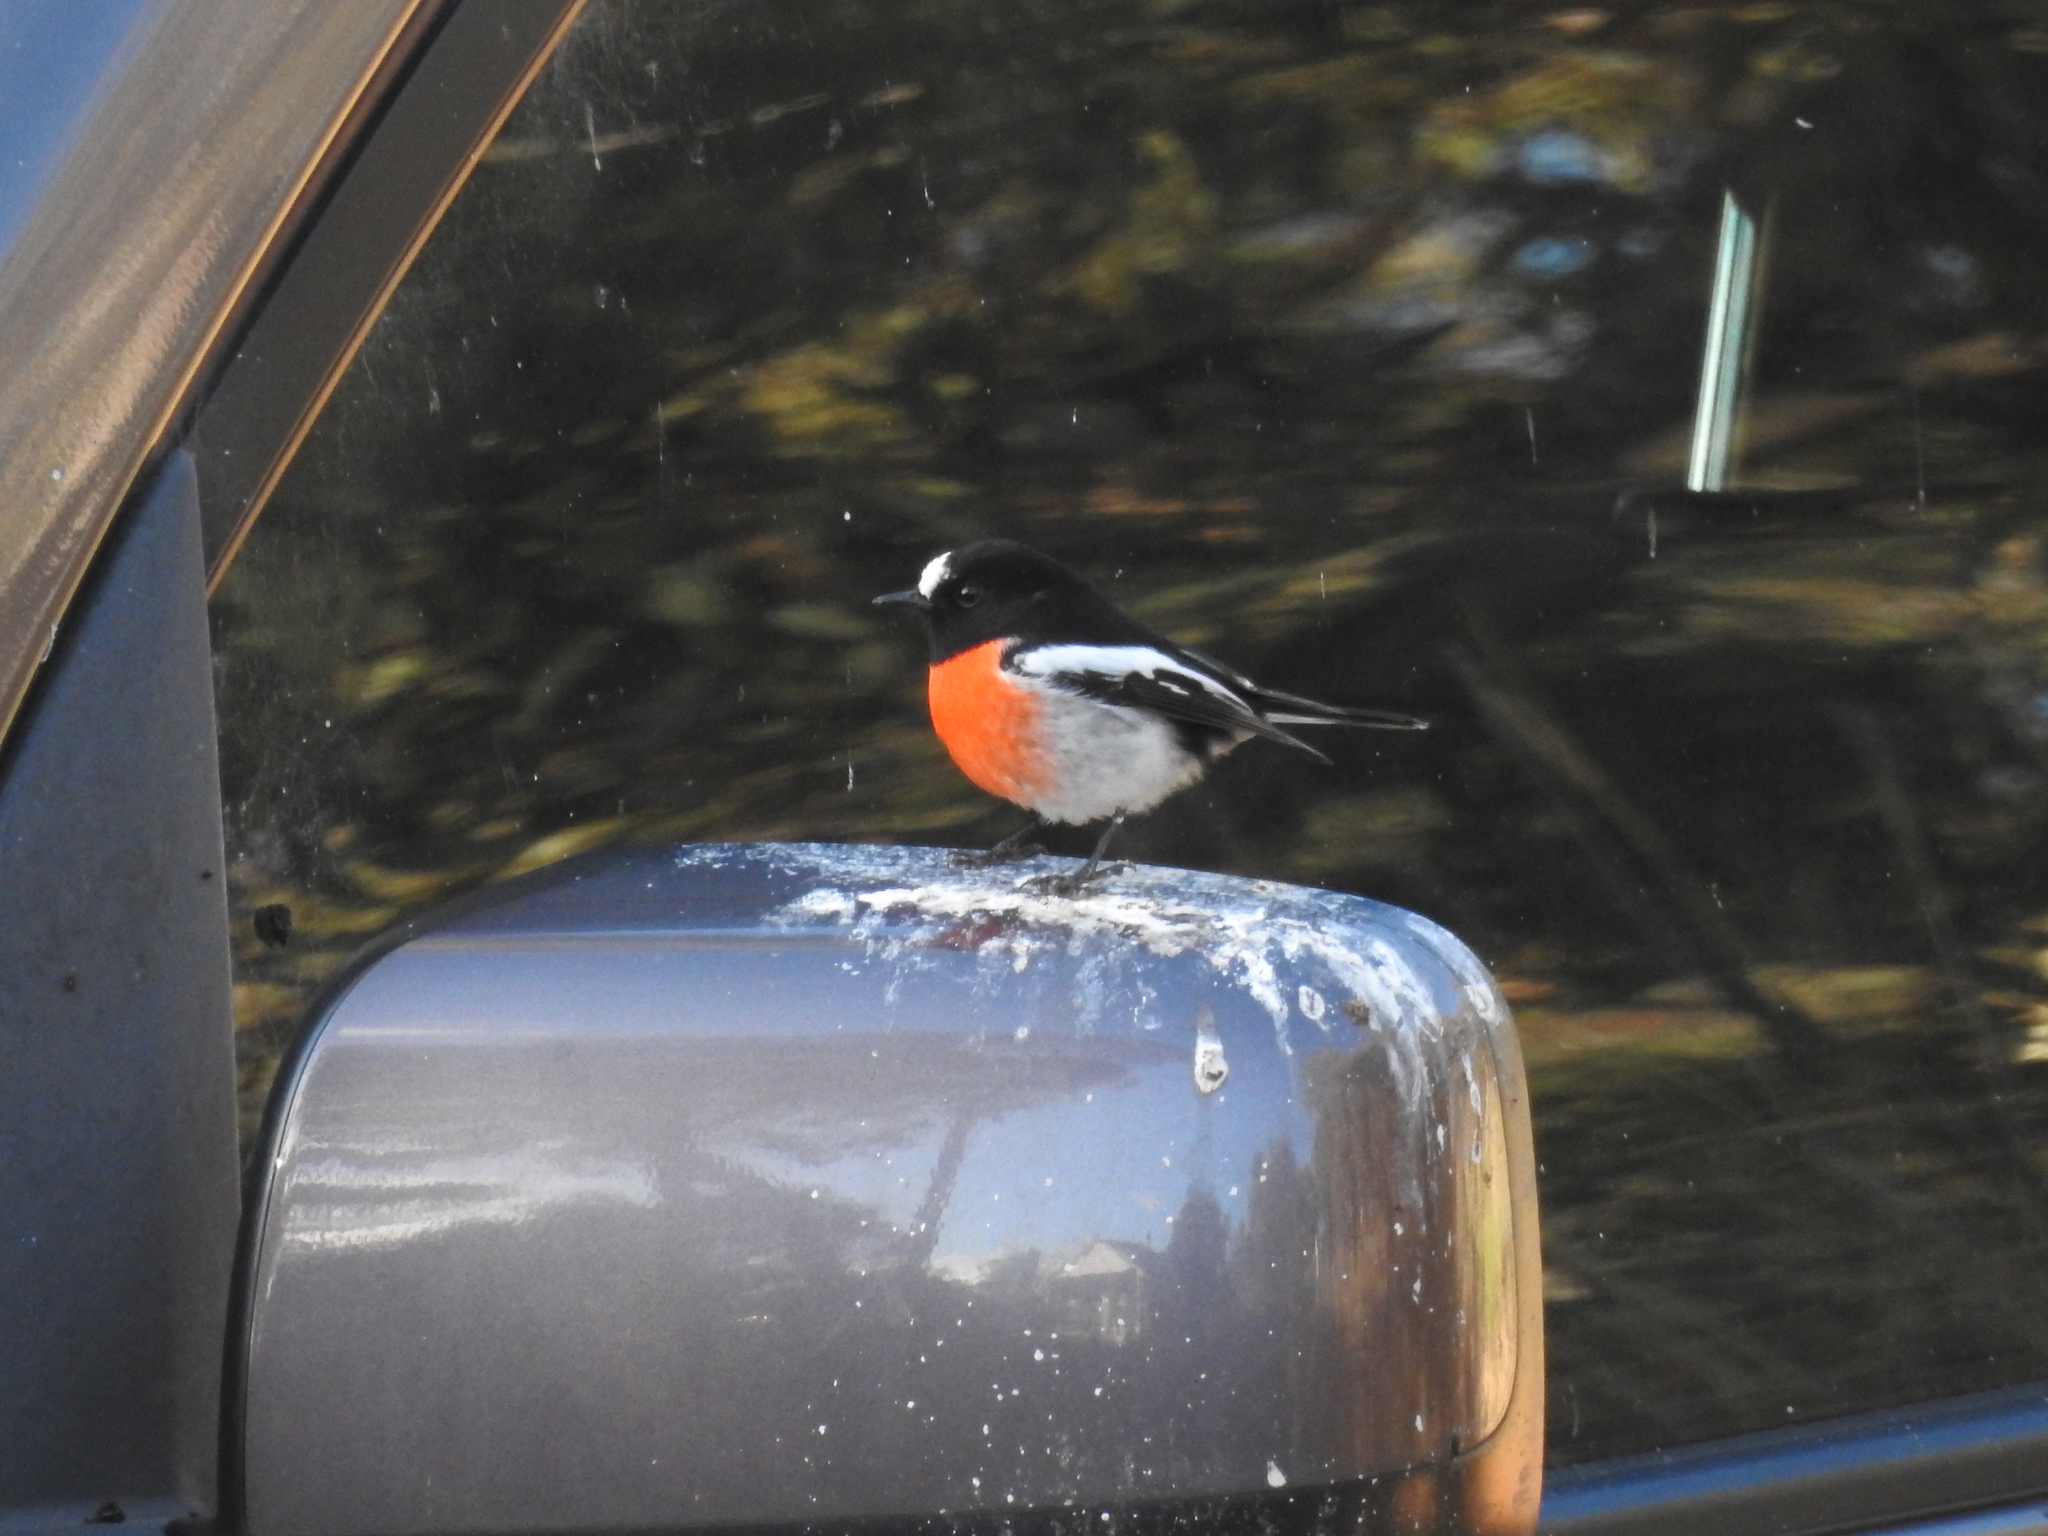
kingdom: Animalia
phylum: Chordata
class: Aves
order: Passeriformes
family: Petroicidae
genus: Petroica
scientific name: Petroica boodang
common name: Scarlet robin
